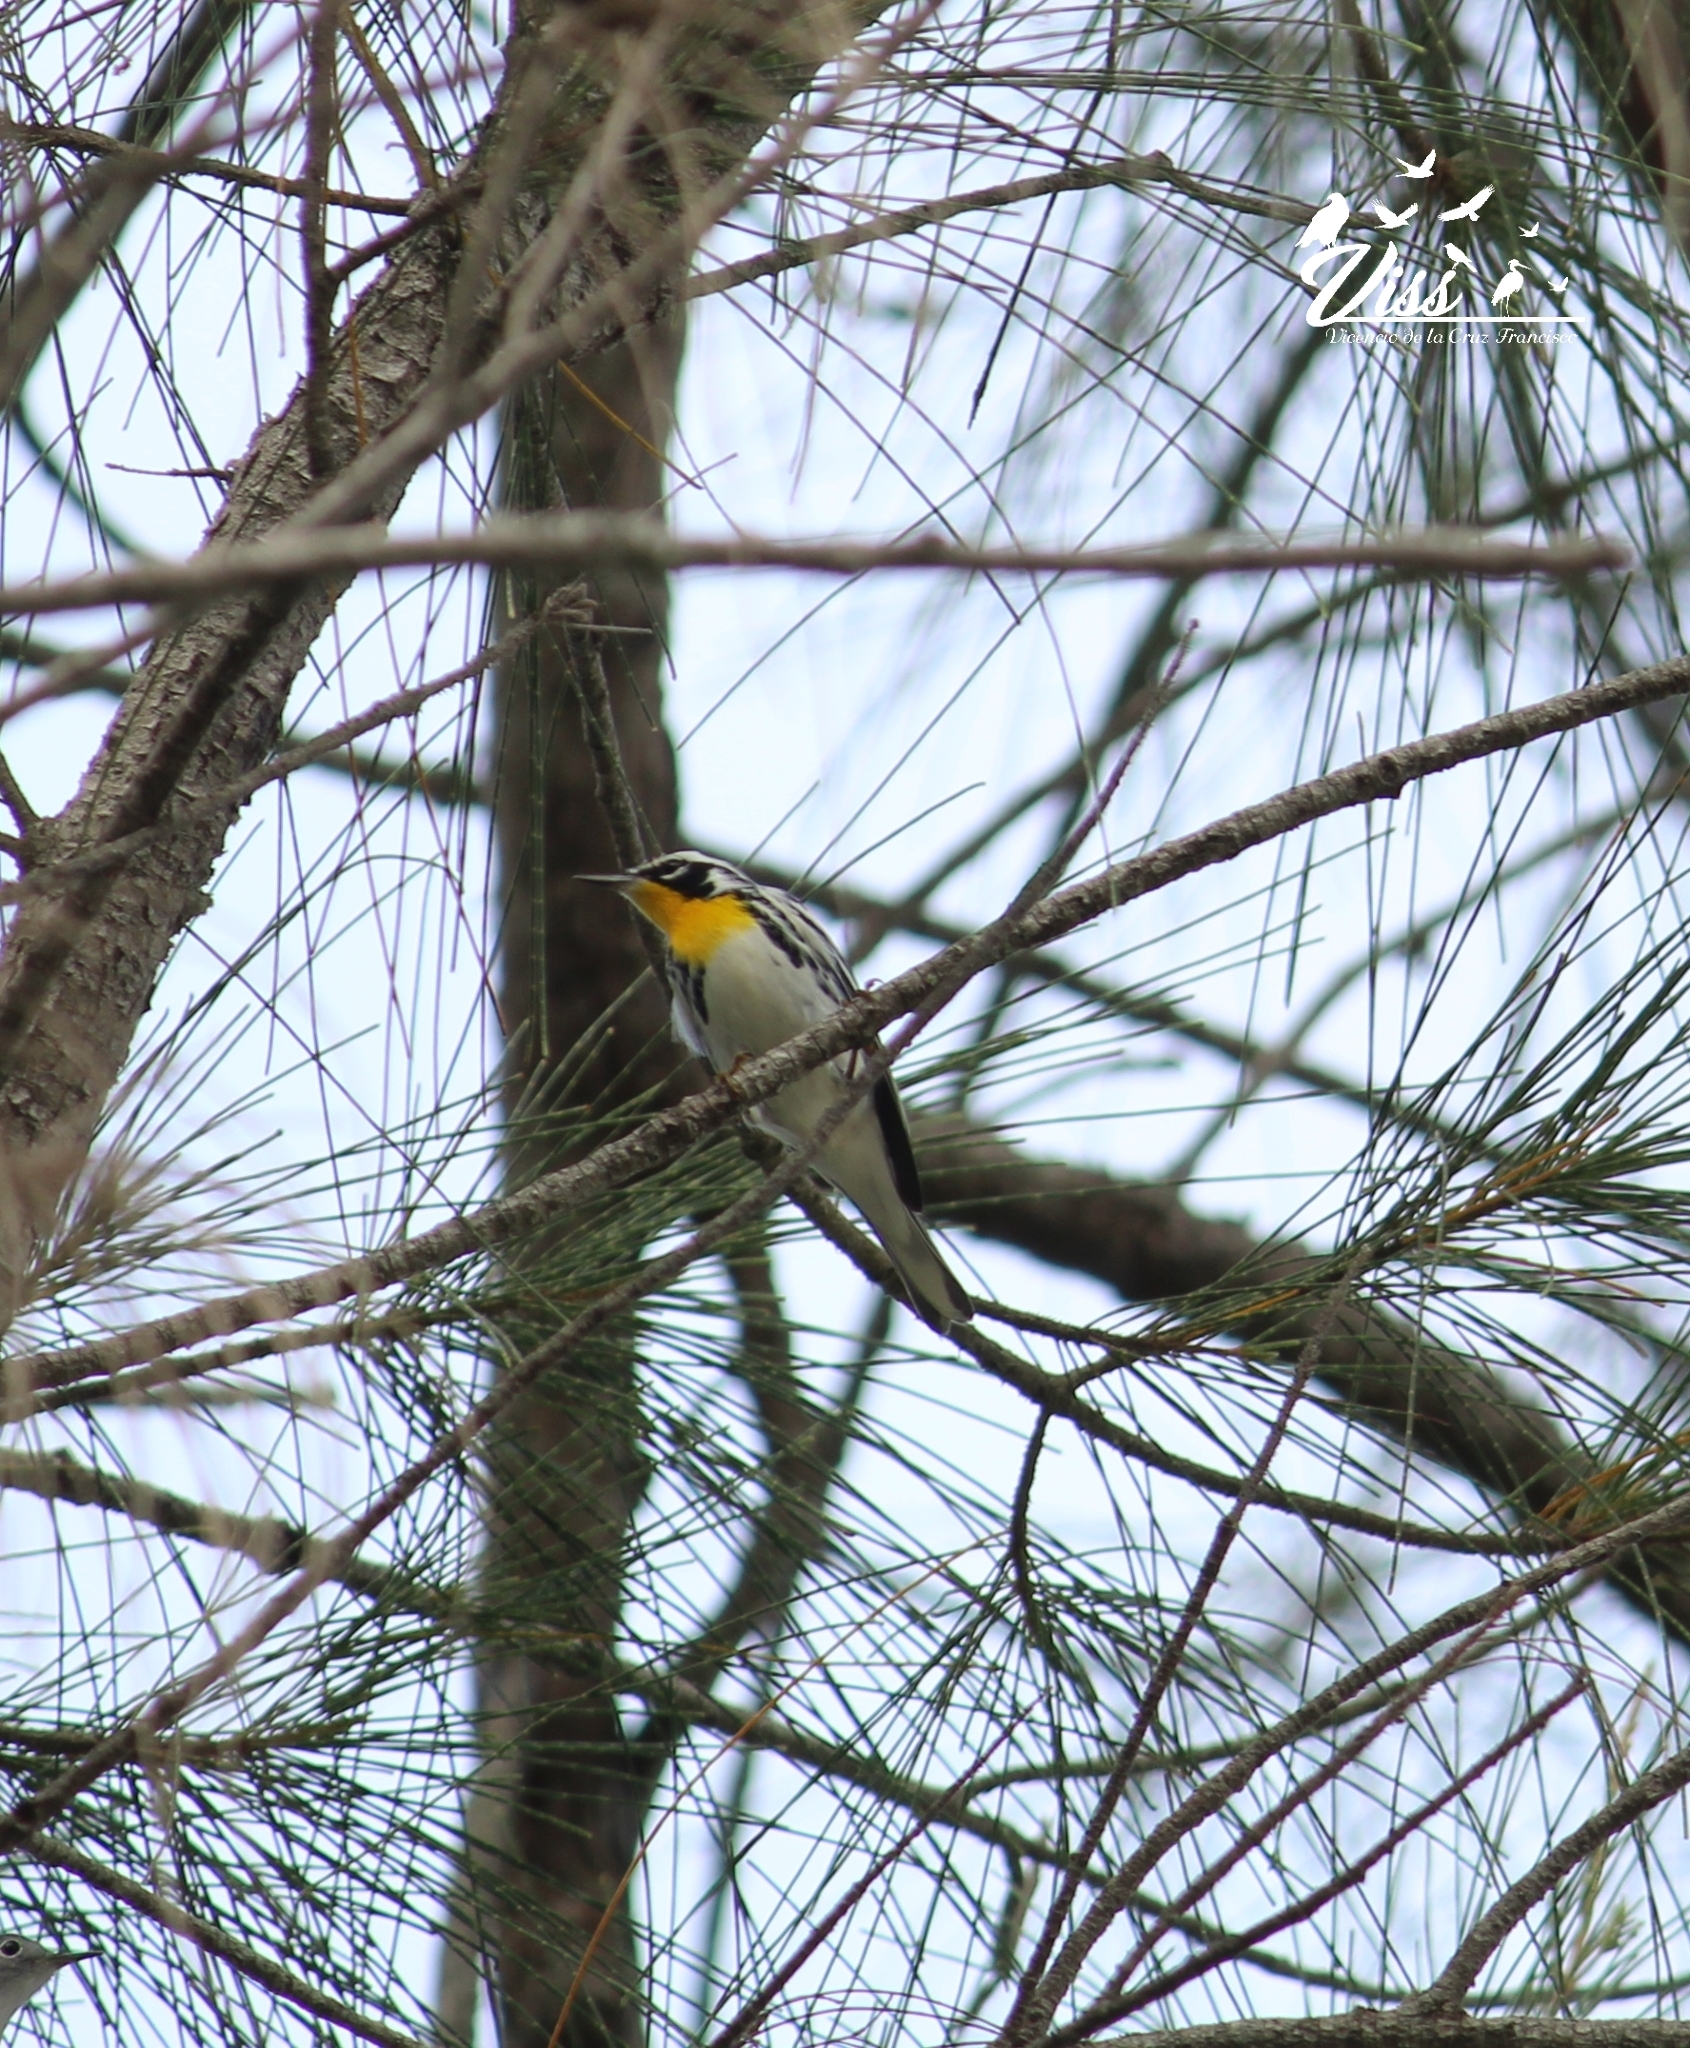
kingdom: Animalia
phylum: Chordata
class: Aves
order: Passeriformes
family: Parulidae
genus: Setophaga
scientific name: Setophaga dominica
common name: Yellow-throated warbler
